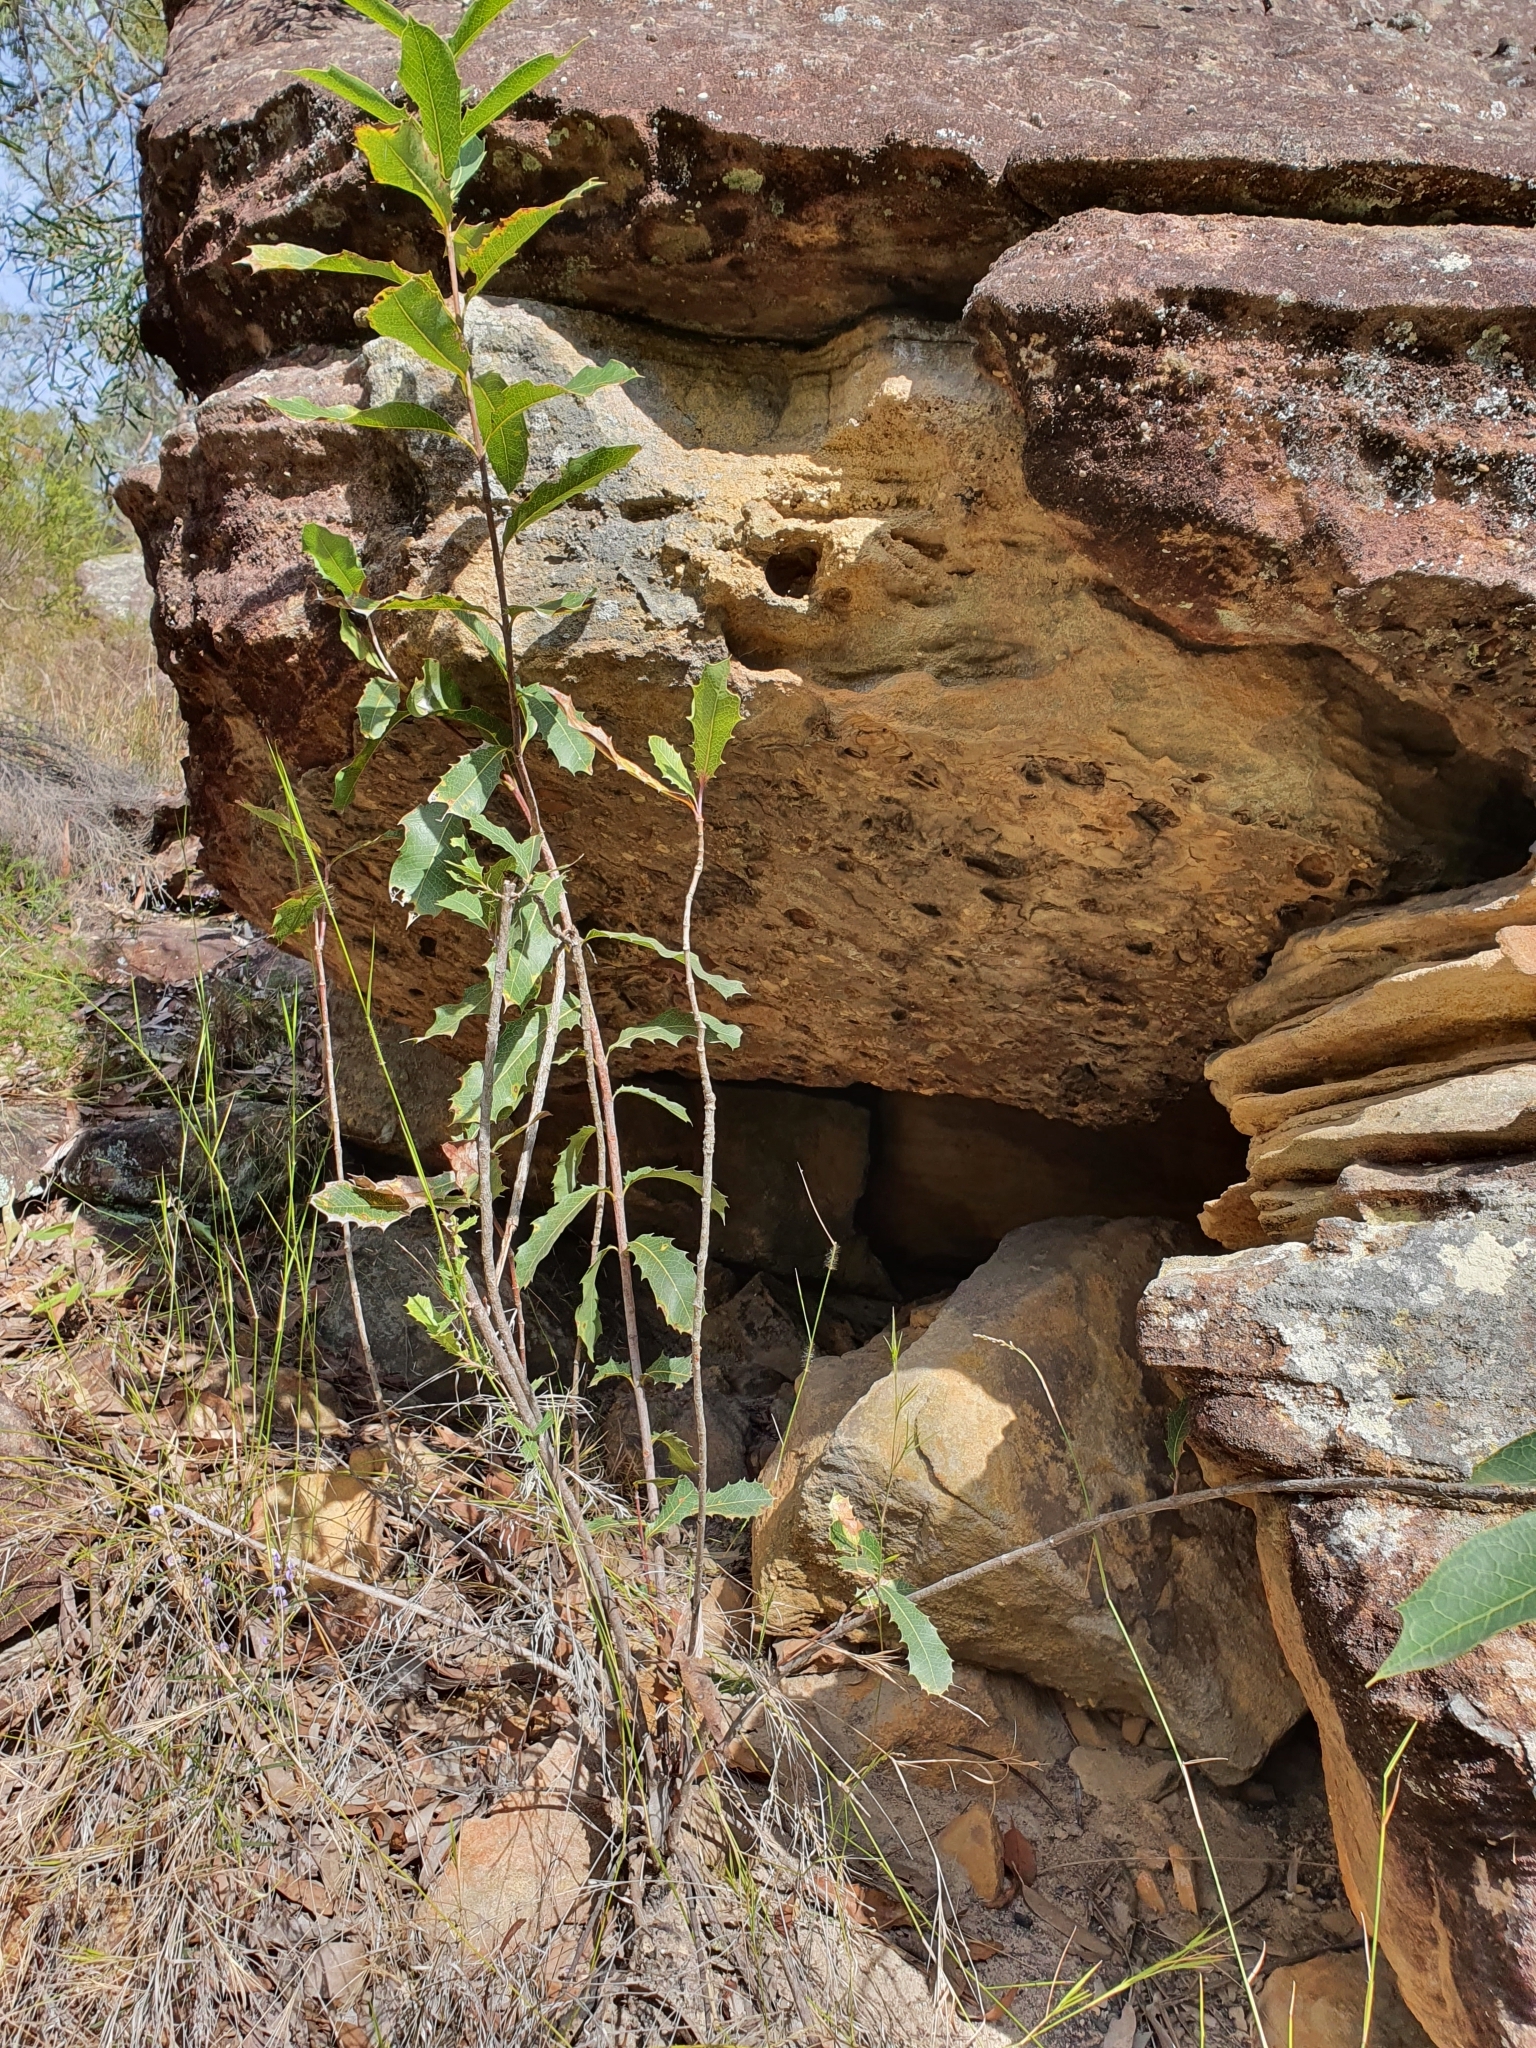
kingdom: Plantae
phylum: Tracheophyta
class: Magnoliopsida
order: Proteales
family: Proteaceae
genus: Xylomelum
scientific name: Xylomelum pyriforme
